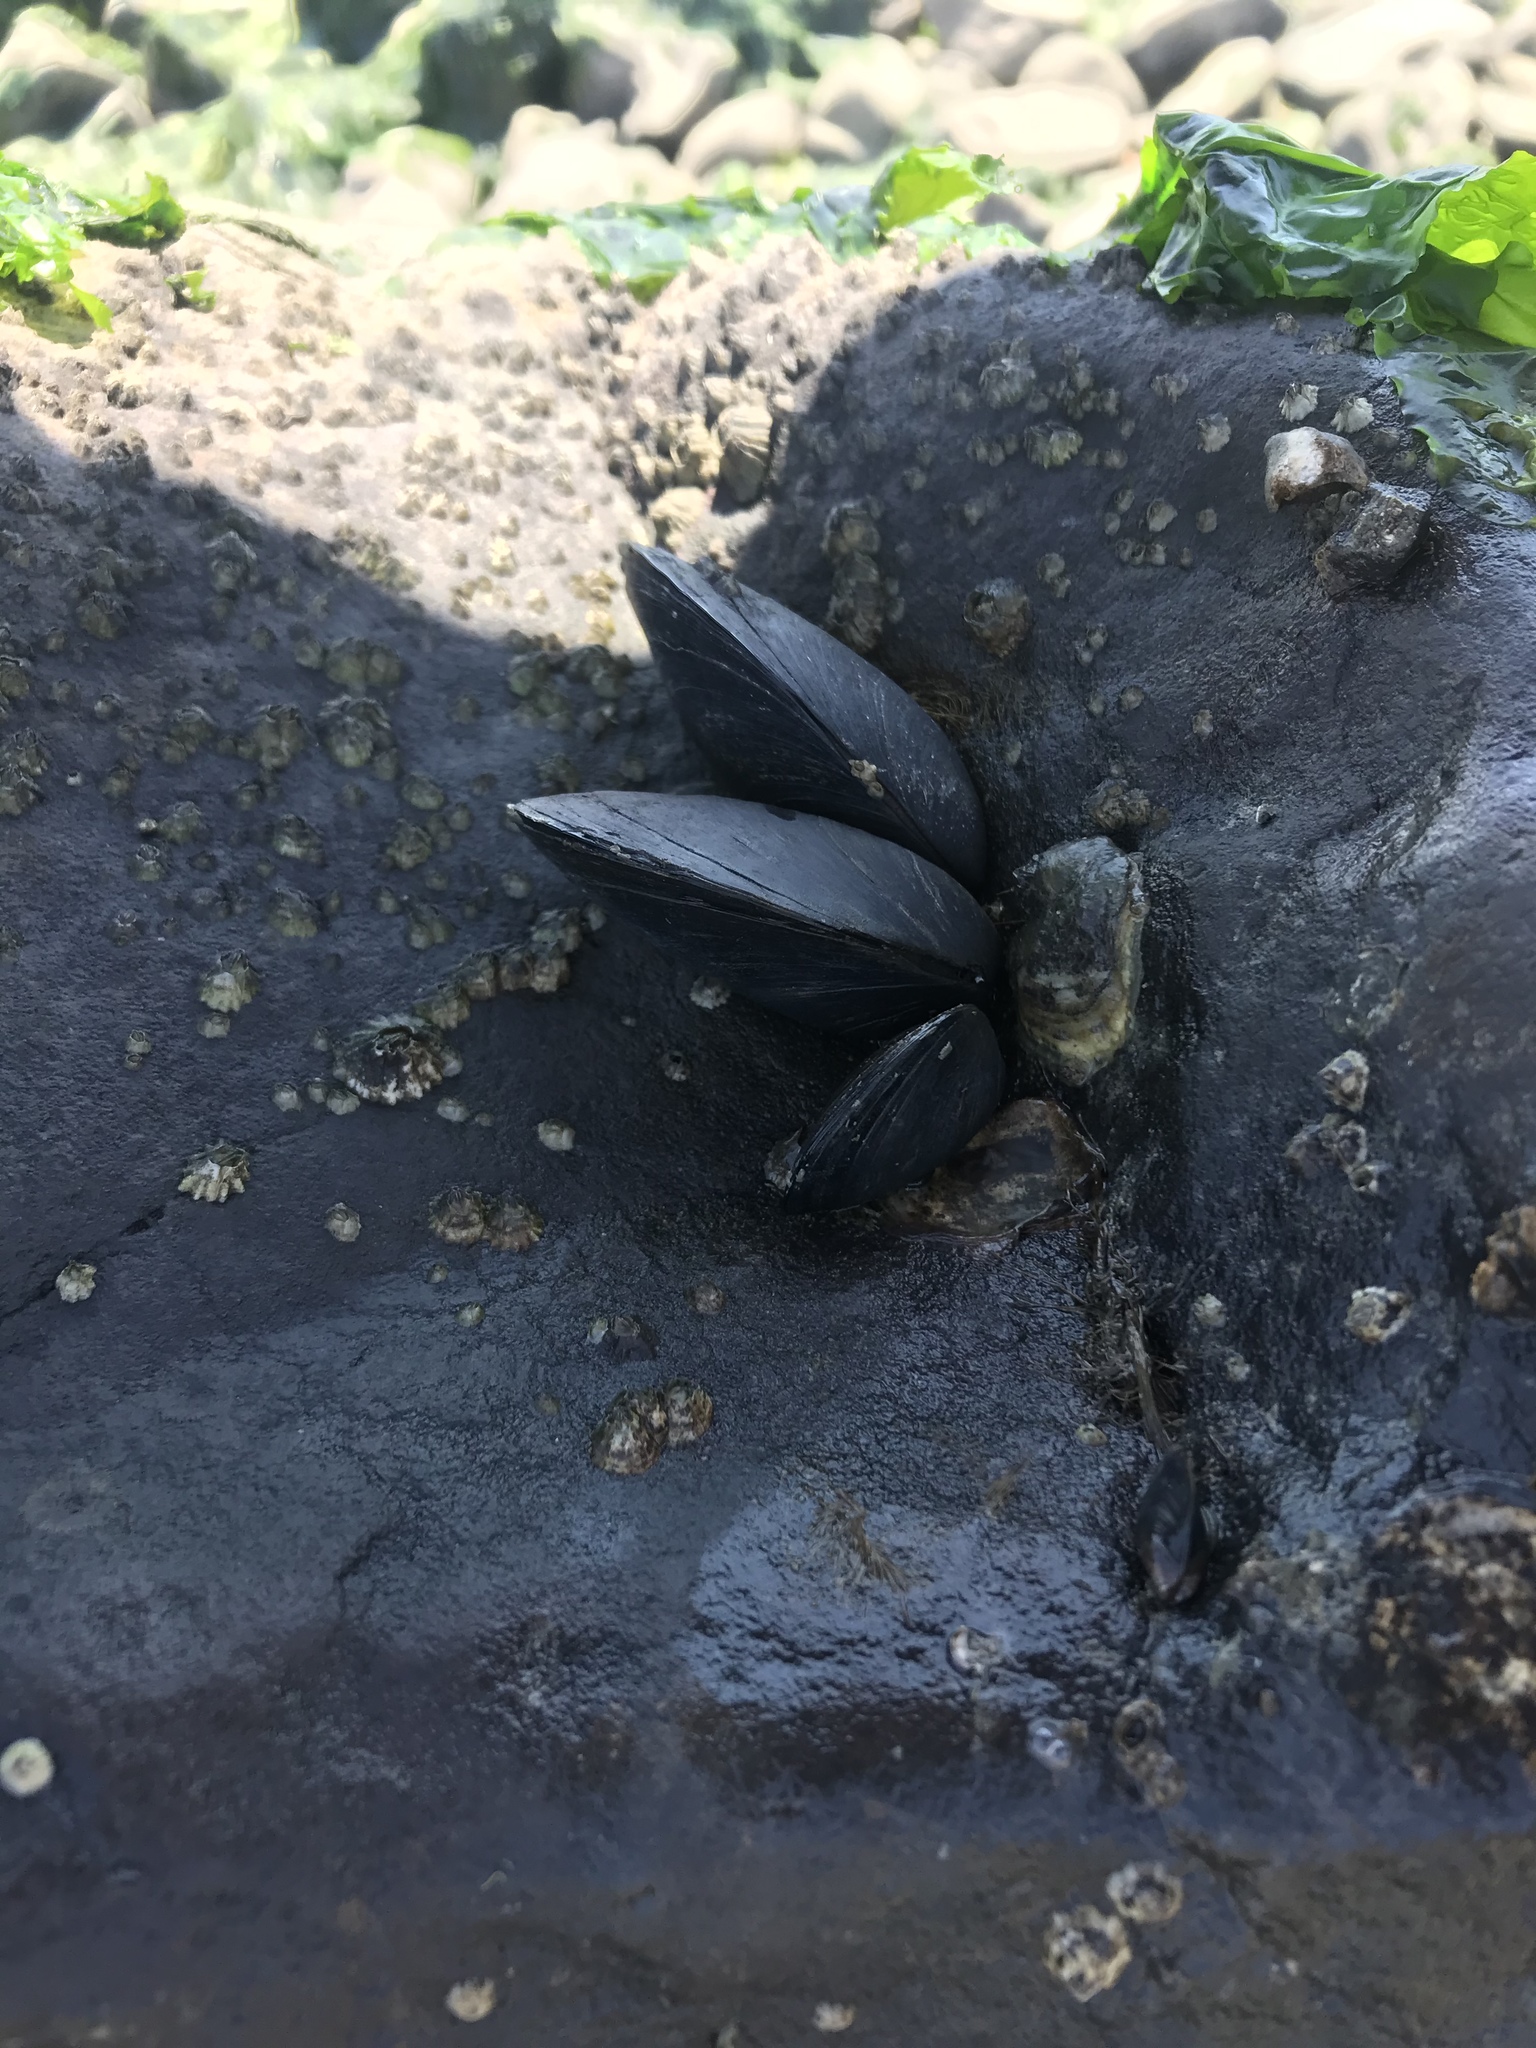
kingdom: Animalia
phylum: Mollusca
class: Bivalvia
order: Mytilida
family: Mytilidae
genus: Mytilus
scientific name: Mytilus
